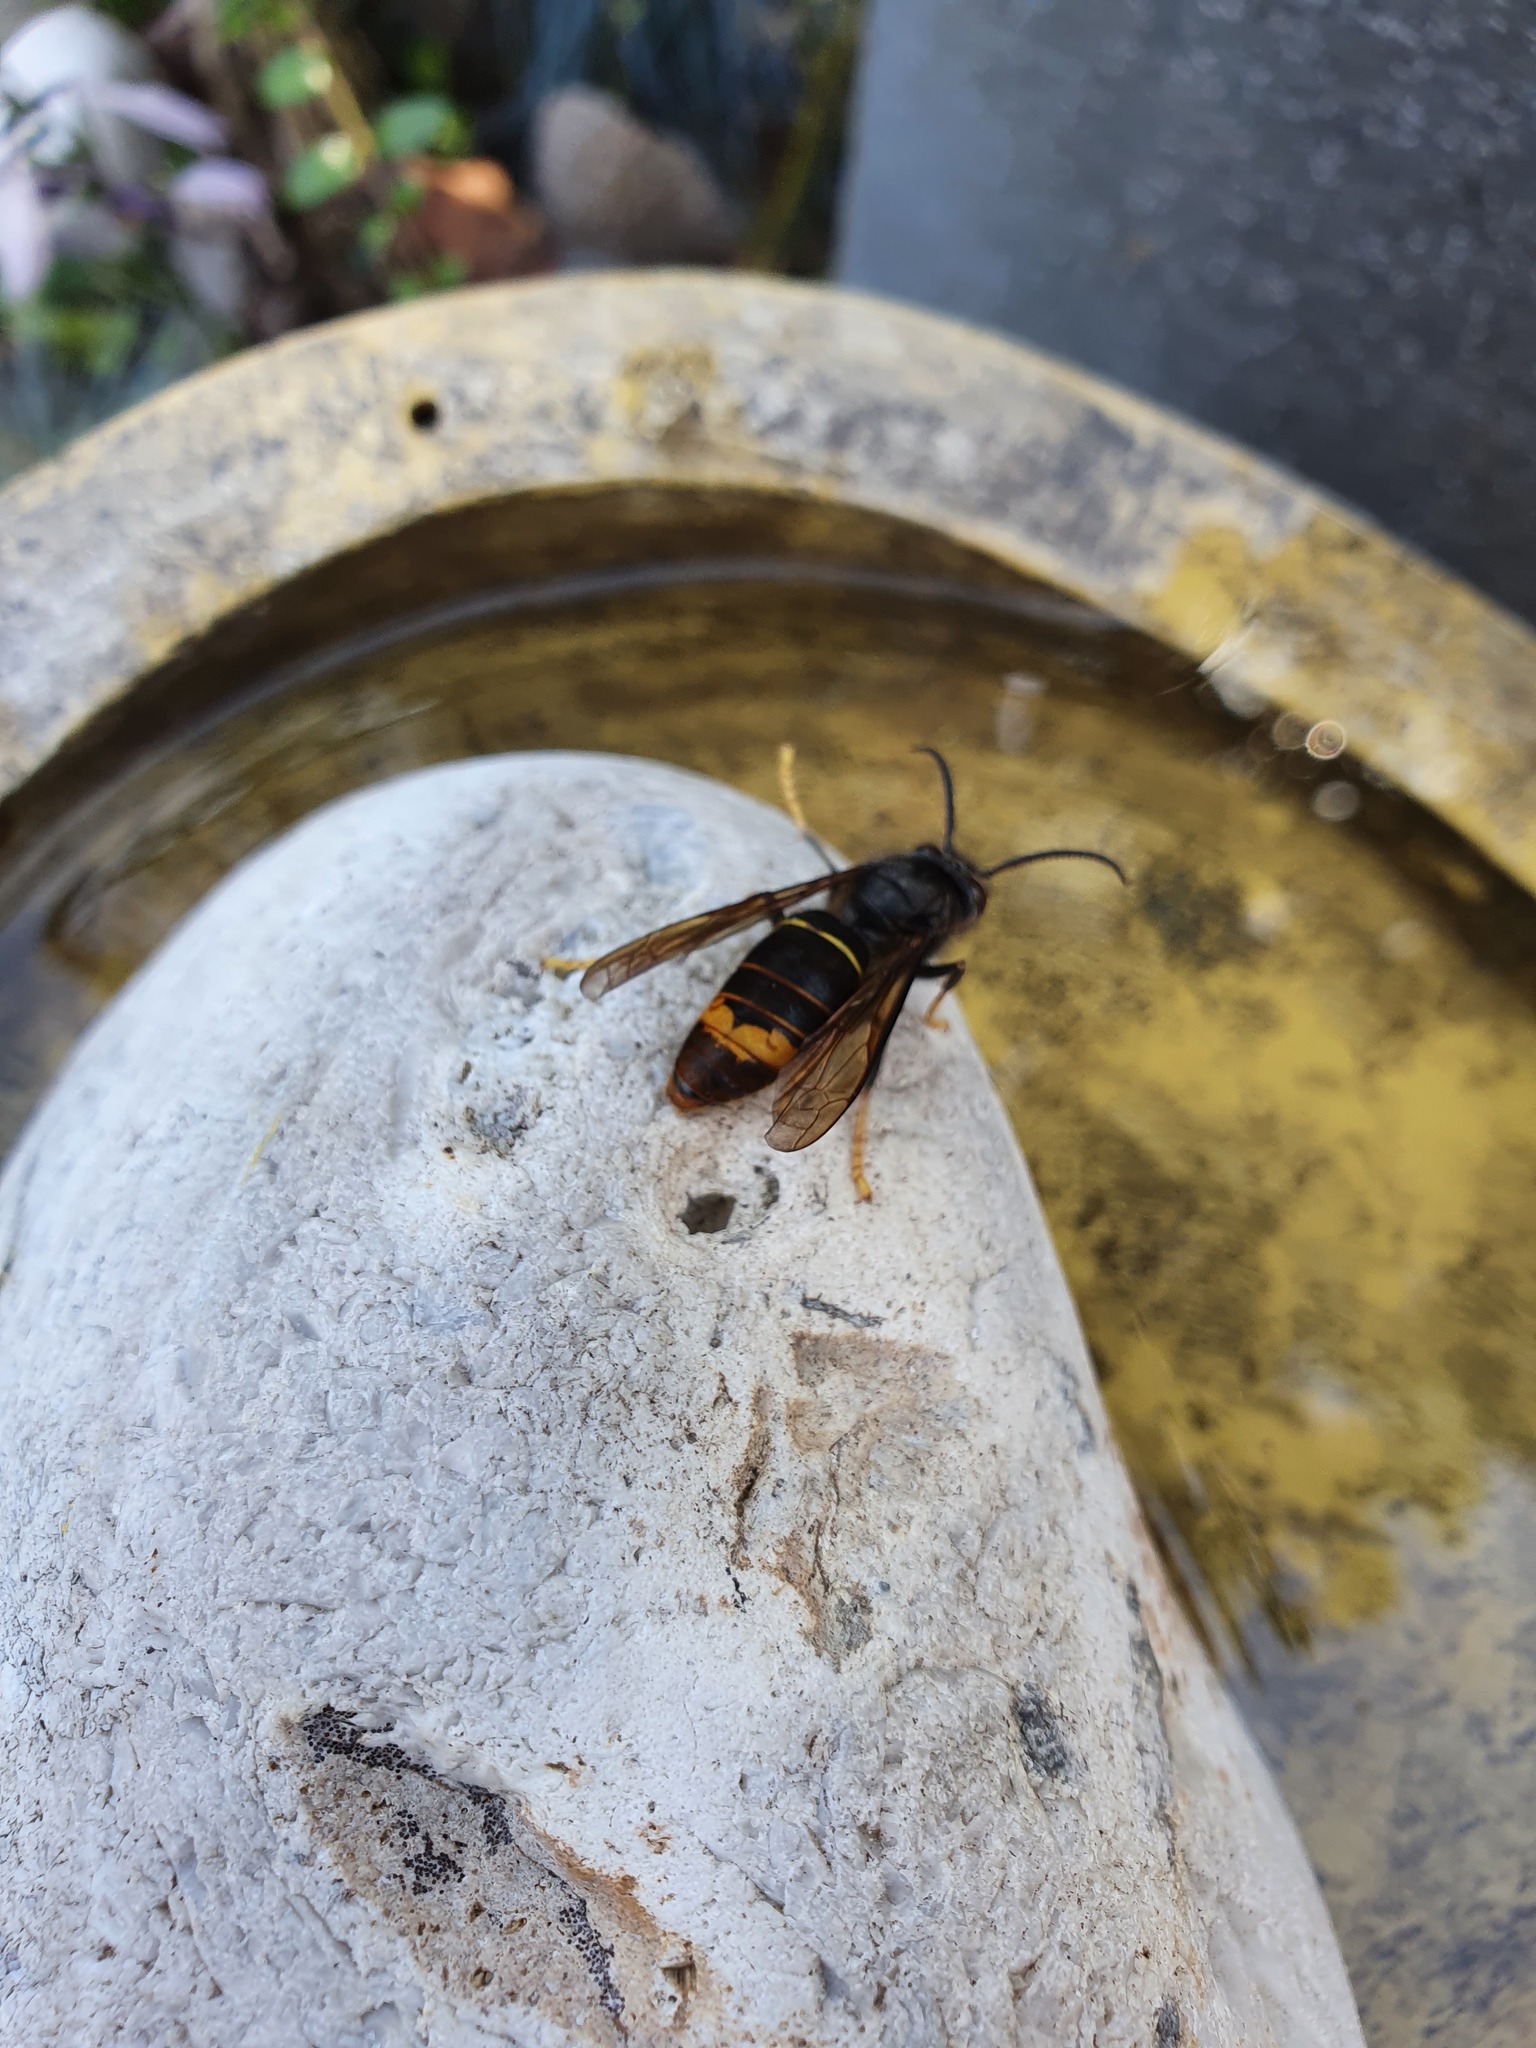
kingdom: Animalia
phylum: Arthropoda
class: Insecta
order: Hymenoptera
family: Vespidae
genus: Vespa
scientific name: Vespa velutina
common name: Asian hornet
